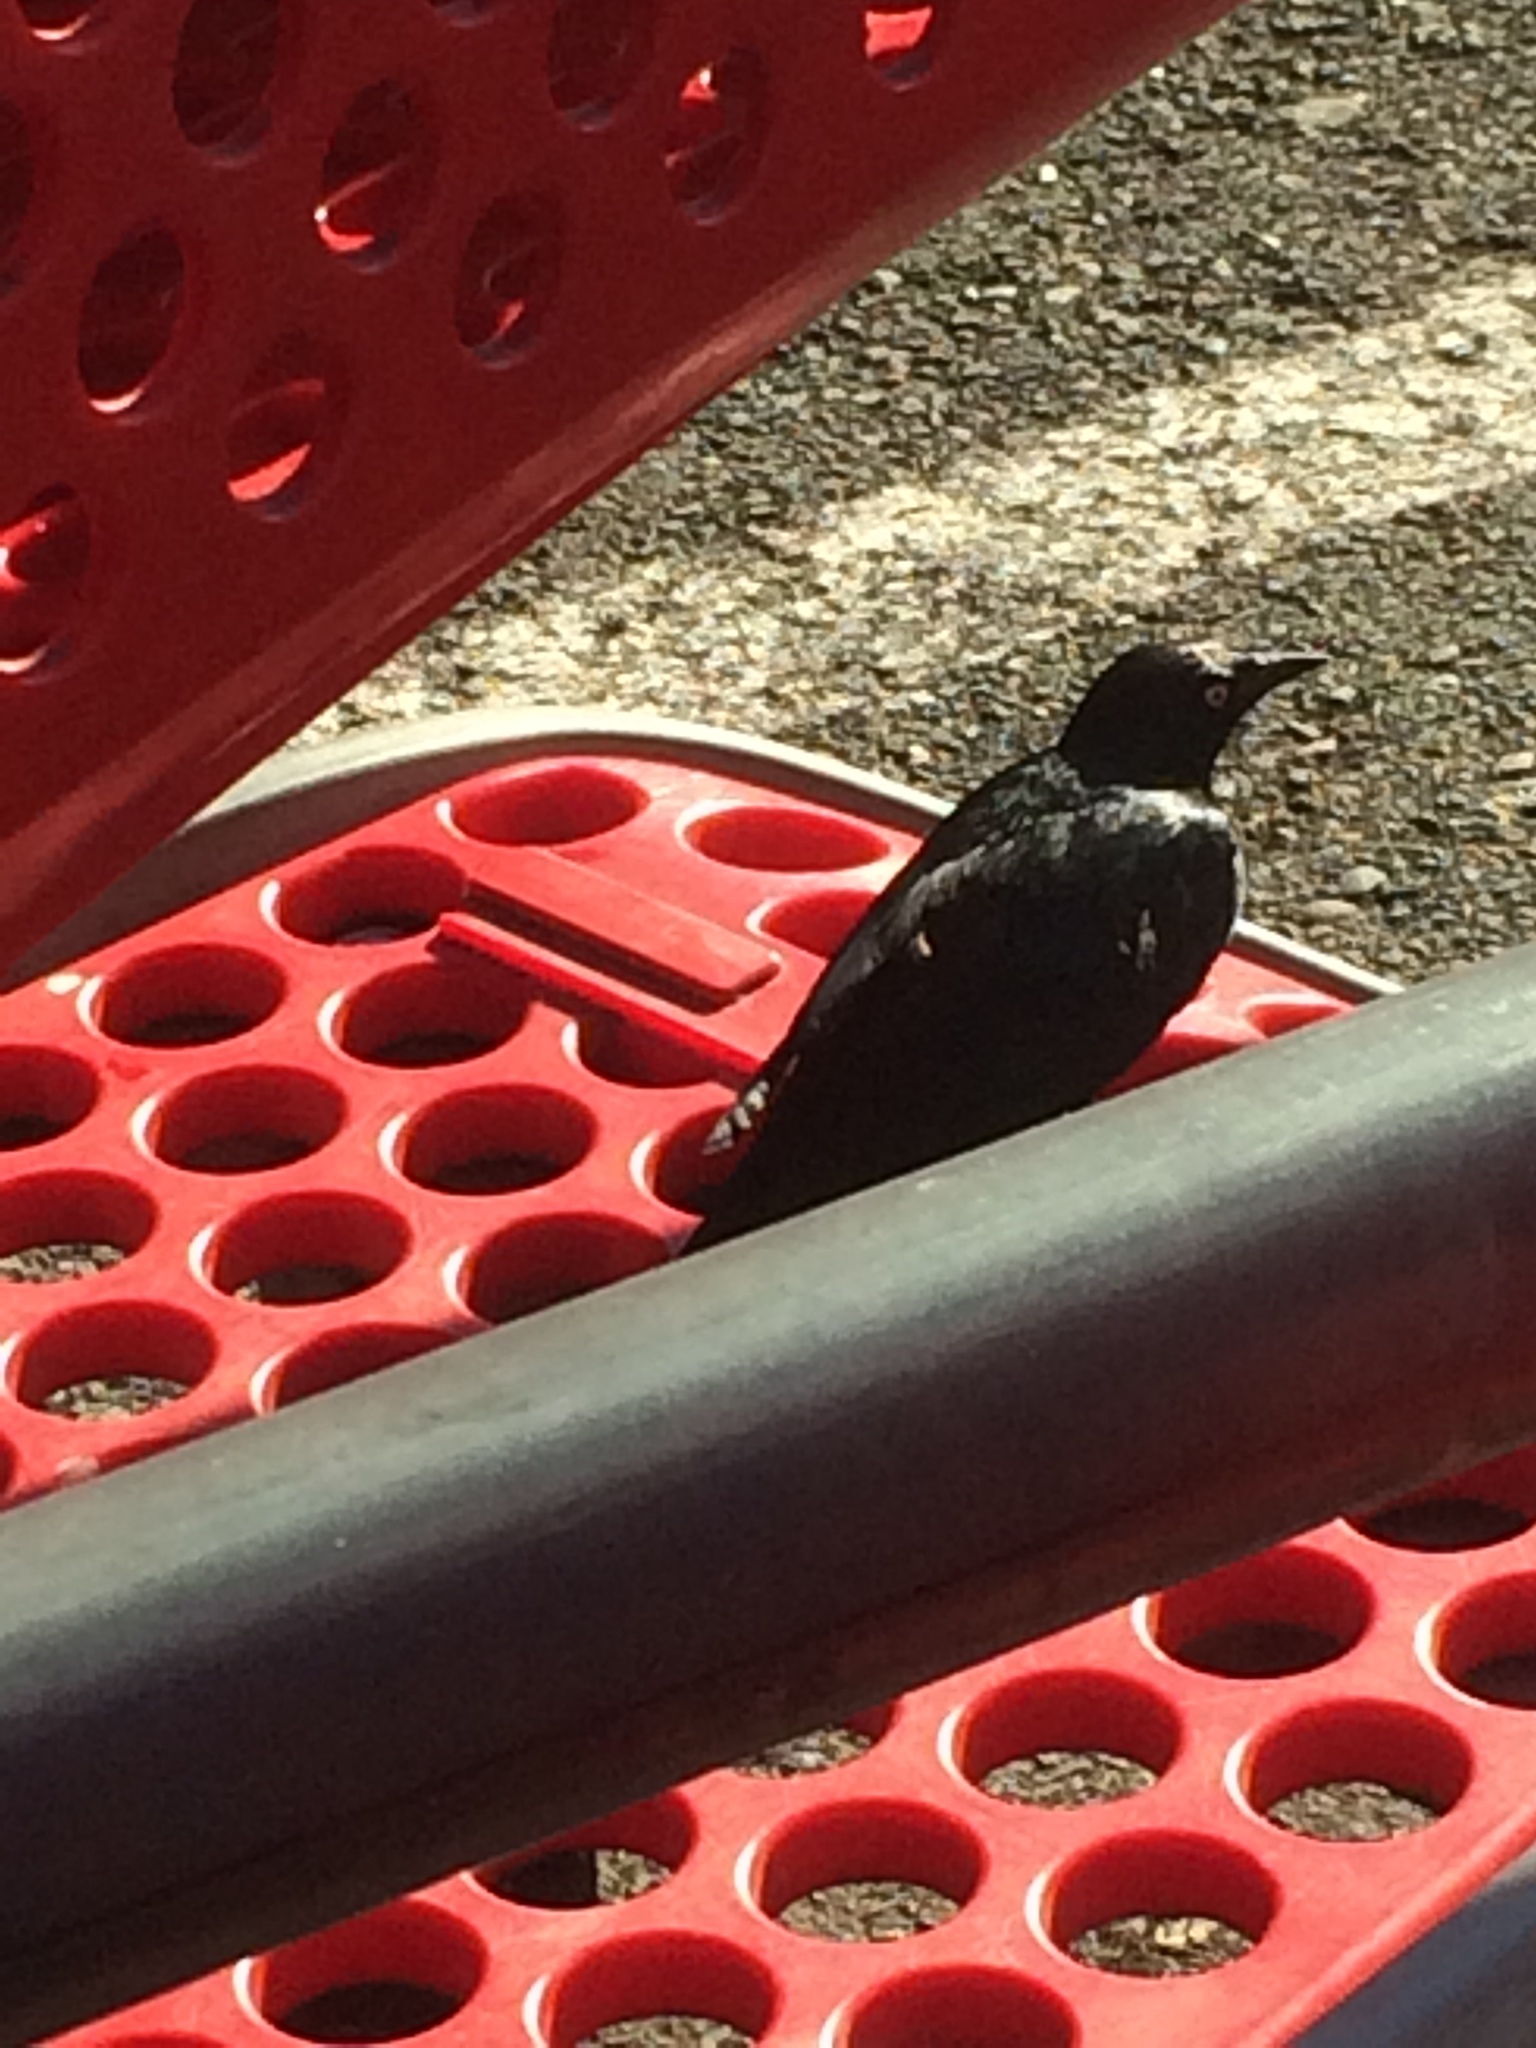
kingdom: Animalia
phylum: Chordata
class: Aves
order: Passeriformes
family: Icteridae
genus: Euphagus
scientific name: Euphagus cyanocephalus
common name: Brewer's blackbird
